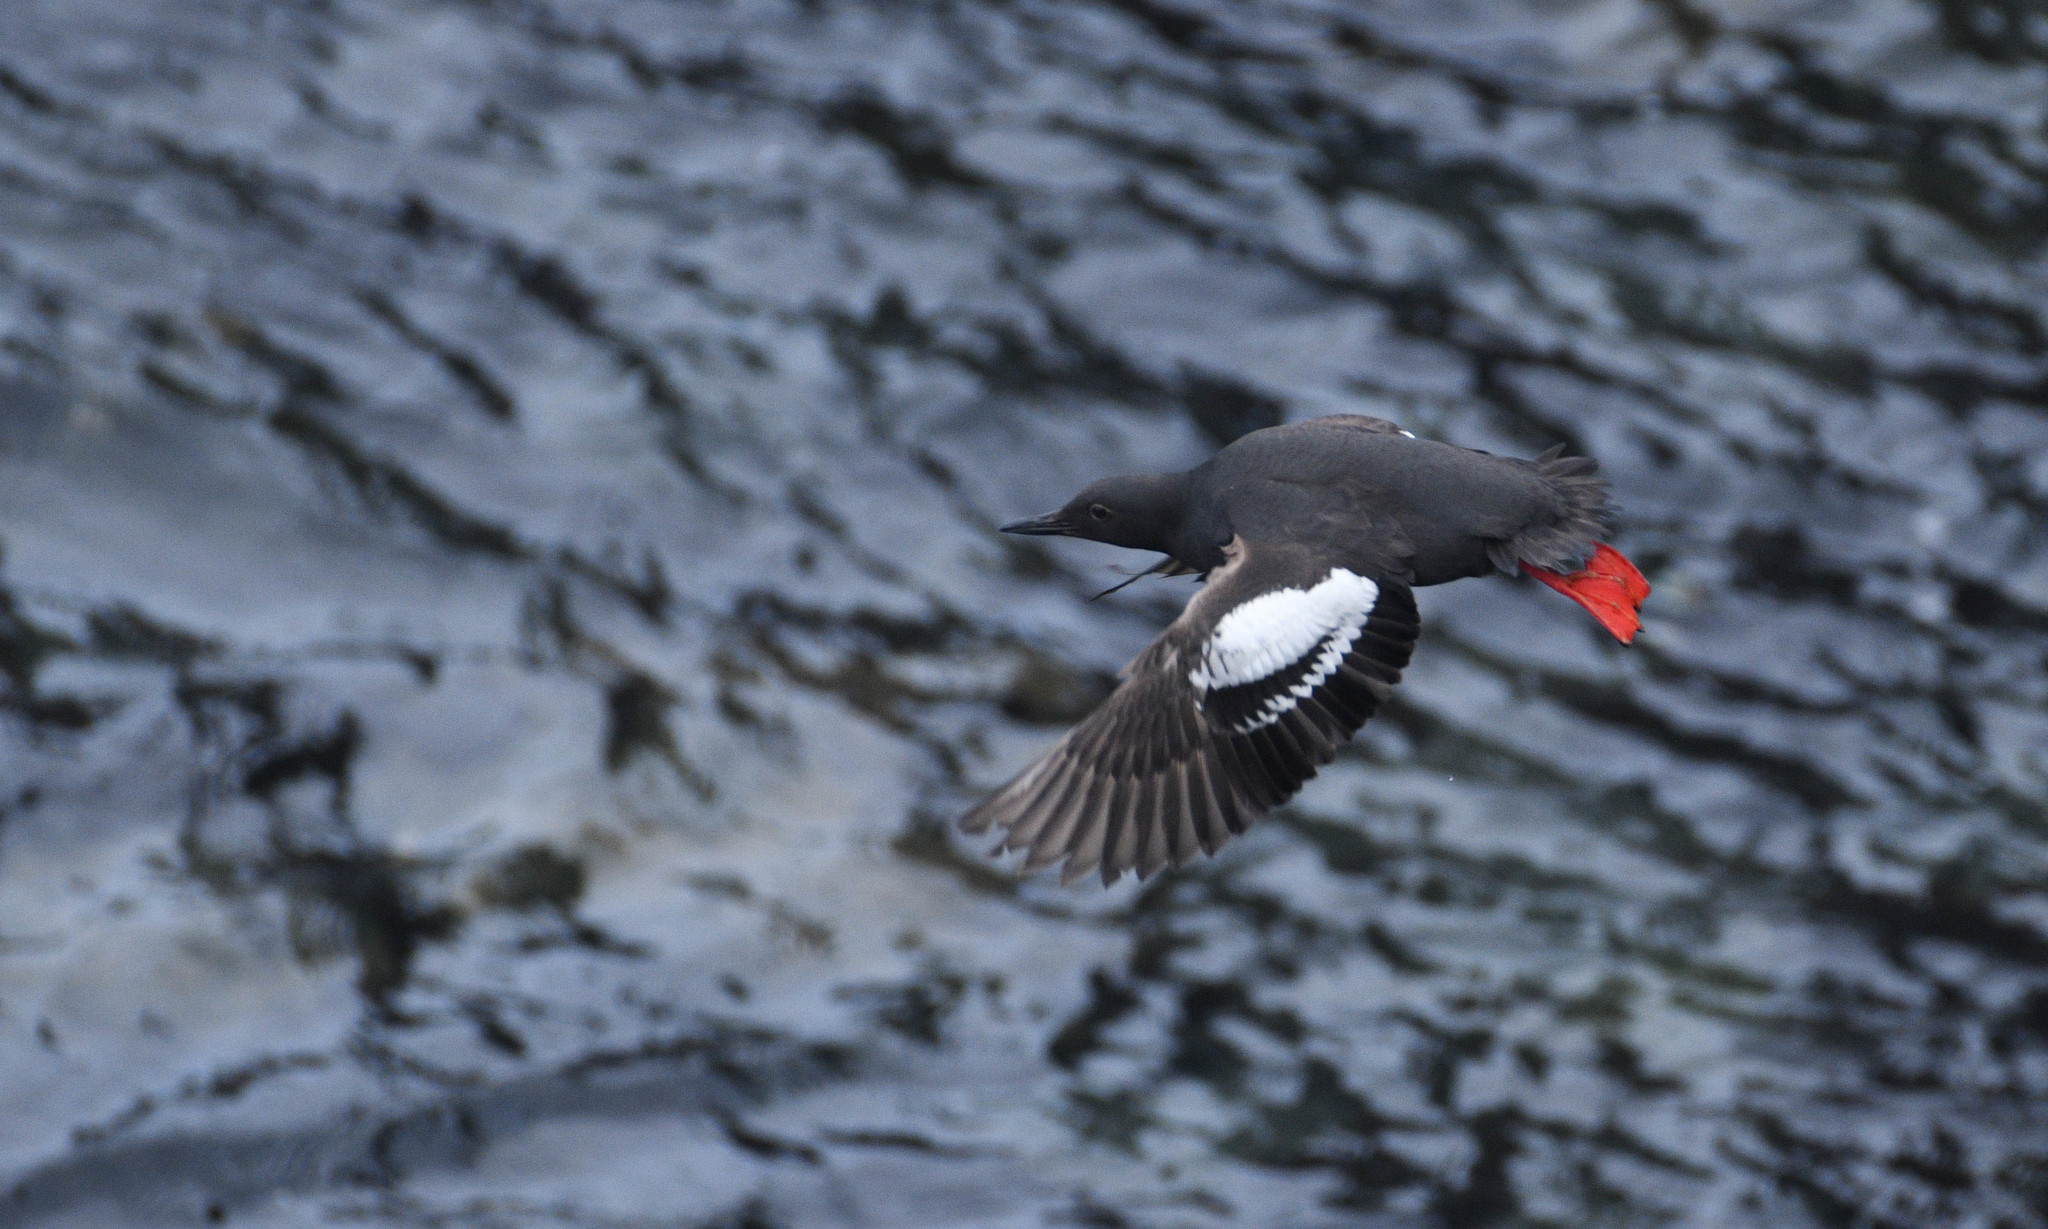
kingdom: Animalia
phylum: Chordata
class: Aves
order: Charadriiformes
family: Alcidae
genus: Cepphus
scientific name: Cepphus columba
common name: Pigeon guillemot
